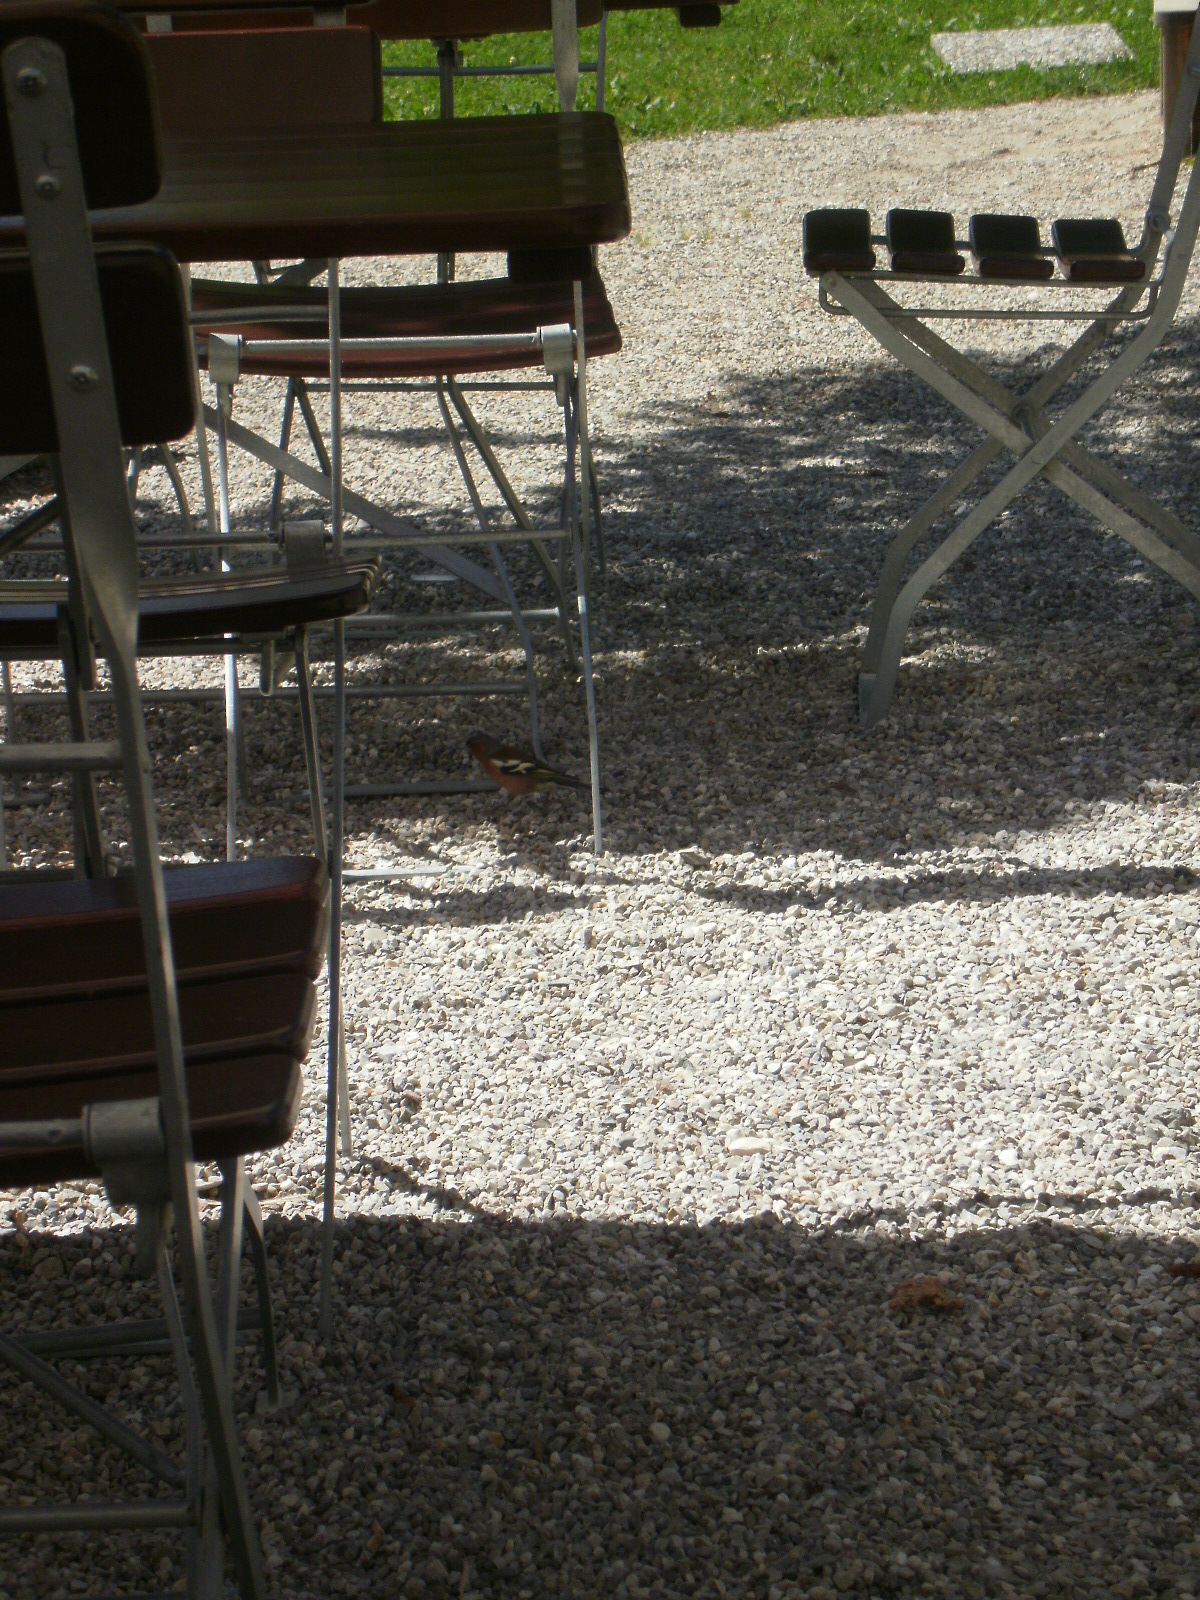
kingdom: Animalia
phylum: Chordata
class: Aves
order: Passeriformes
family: Fringillidae
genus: Fringilla
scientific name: Fringilla coelebs
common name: Common chaffinch
